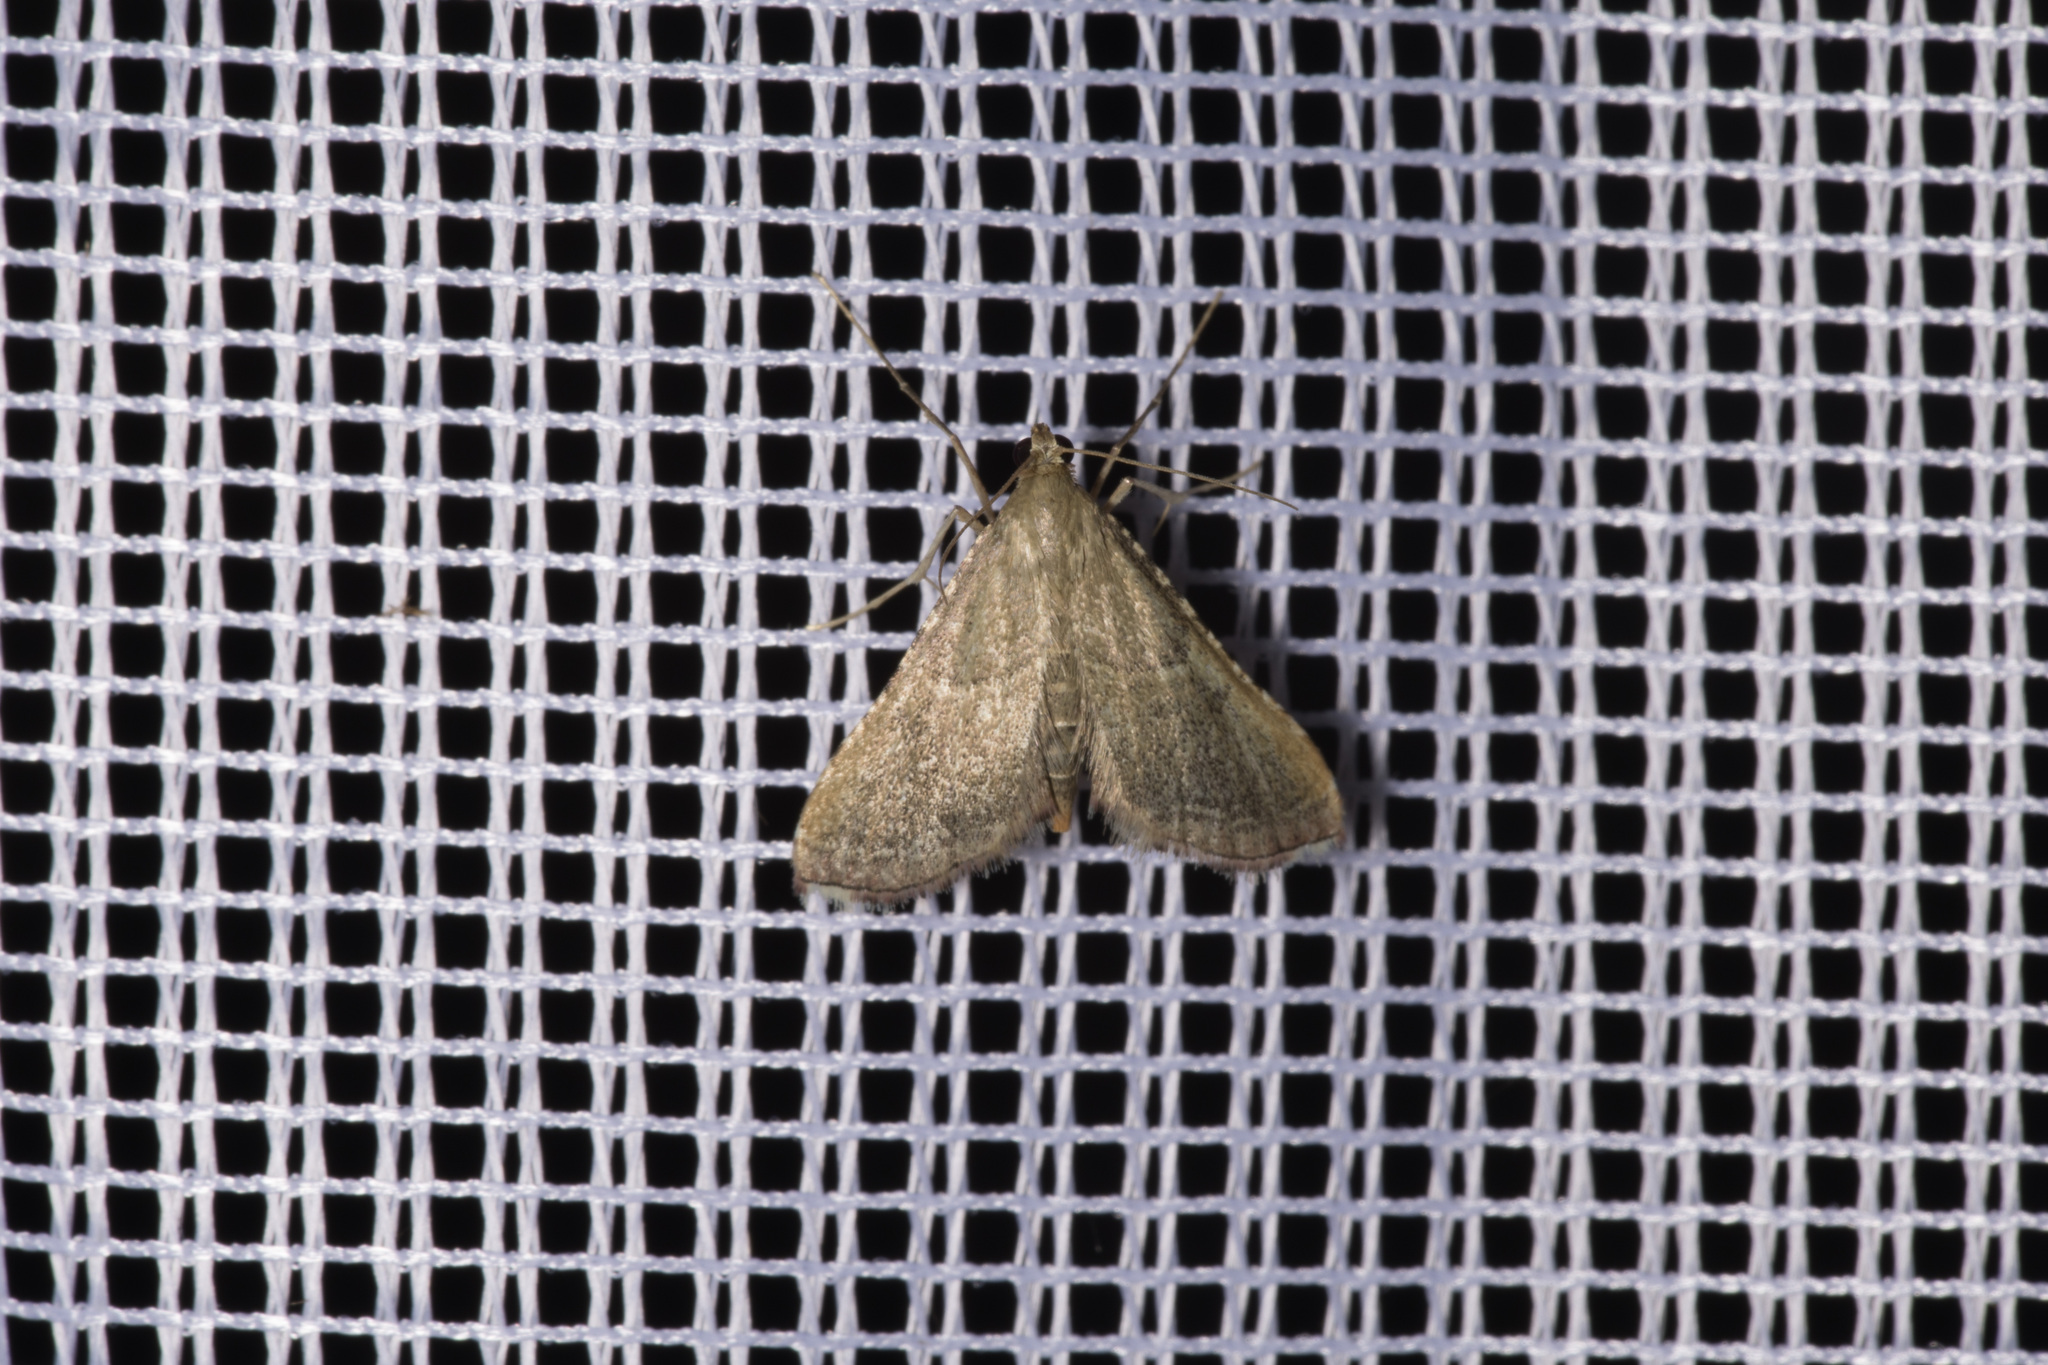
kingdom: Animalia
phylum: Arthropoda
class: Insecta
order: Lepidoptera
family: Pyralidae
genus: Endotricha
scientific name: Endotricha flammealis
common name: Rosy tabby
